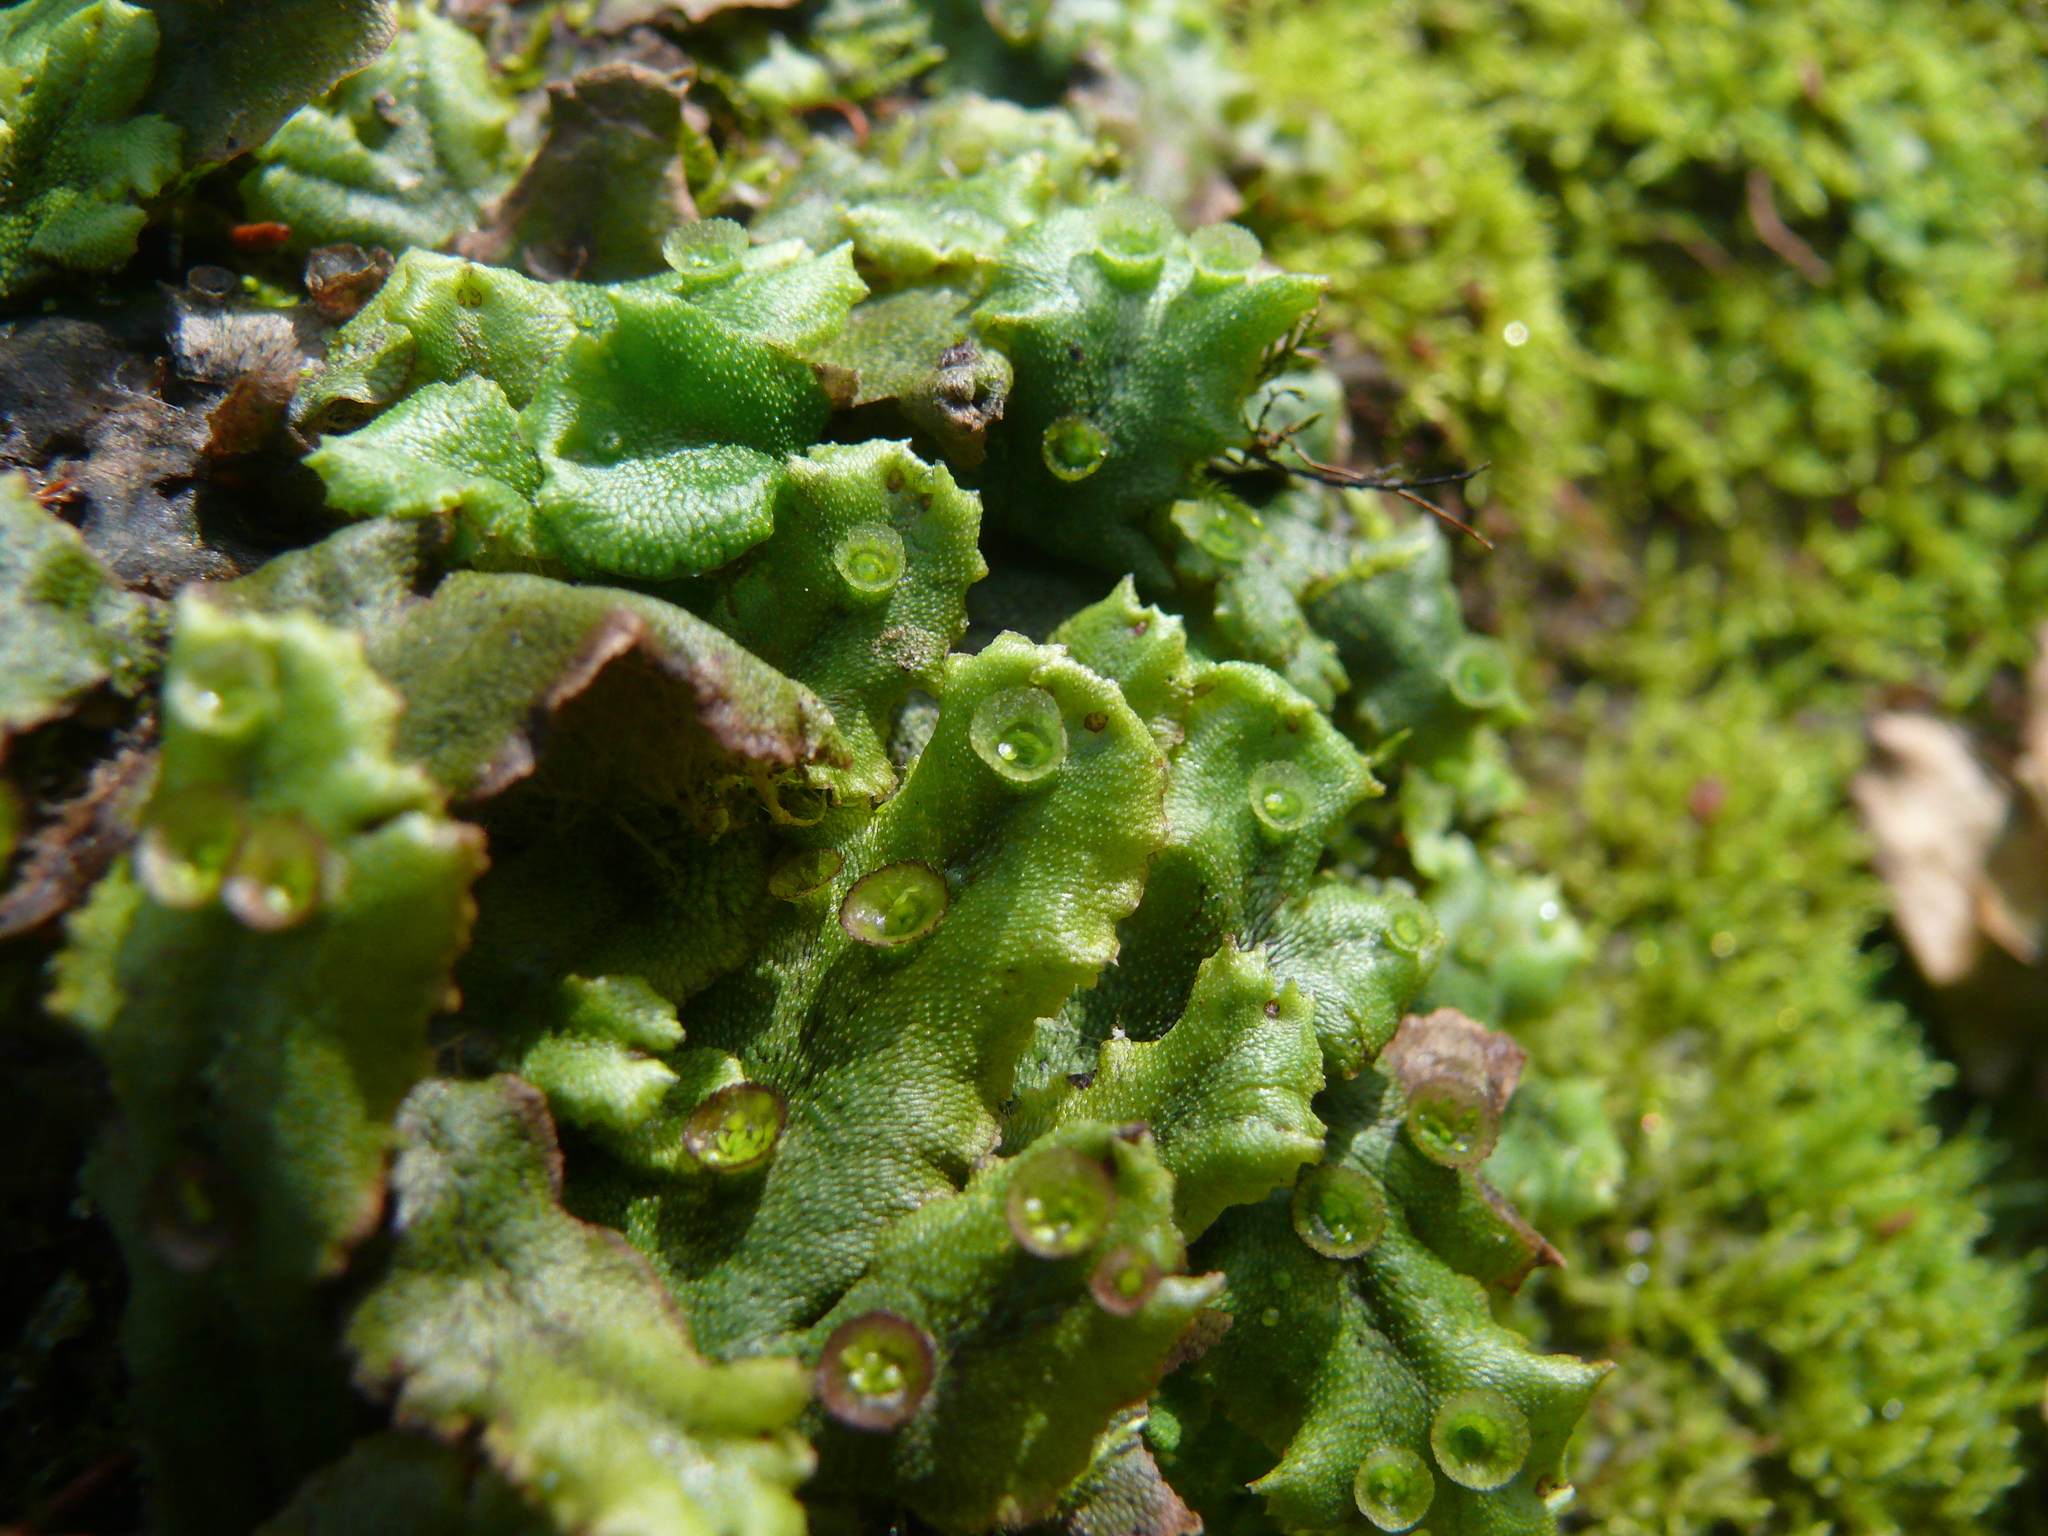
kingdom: Plantae
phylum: Marchantiophyta
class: Marchantiopsida
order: Marchantiales
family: Marchantiaceae
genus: Marchantia
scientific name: Marchantia polymorpha
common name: Common liverwort
